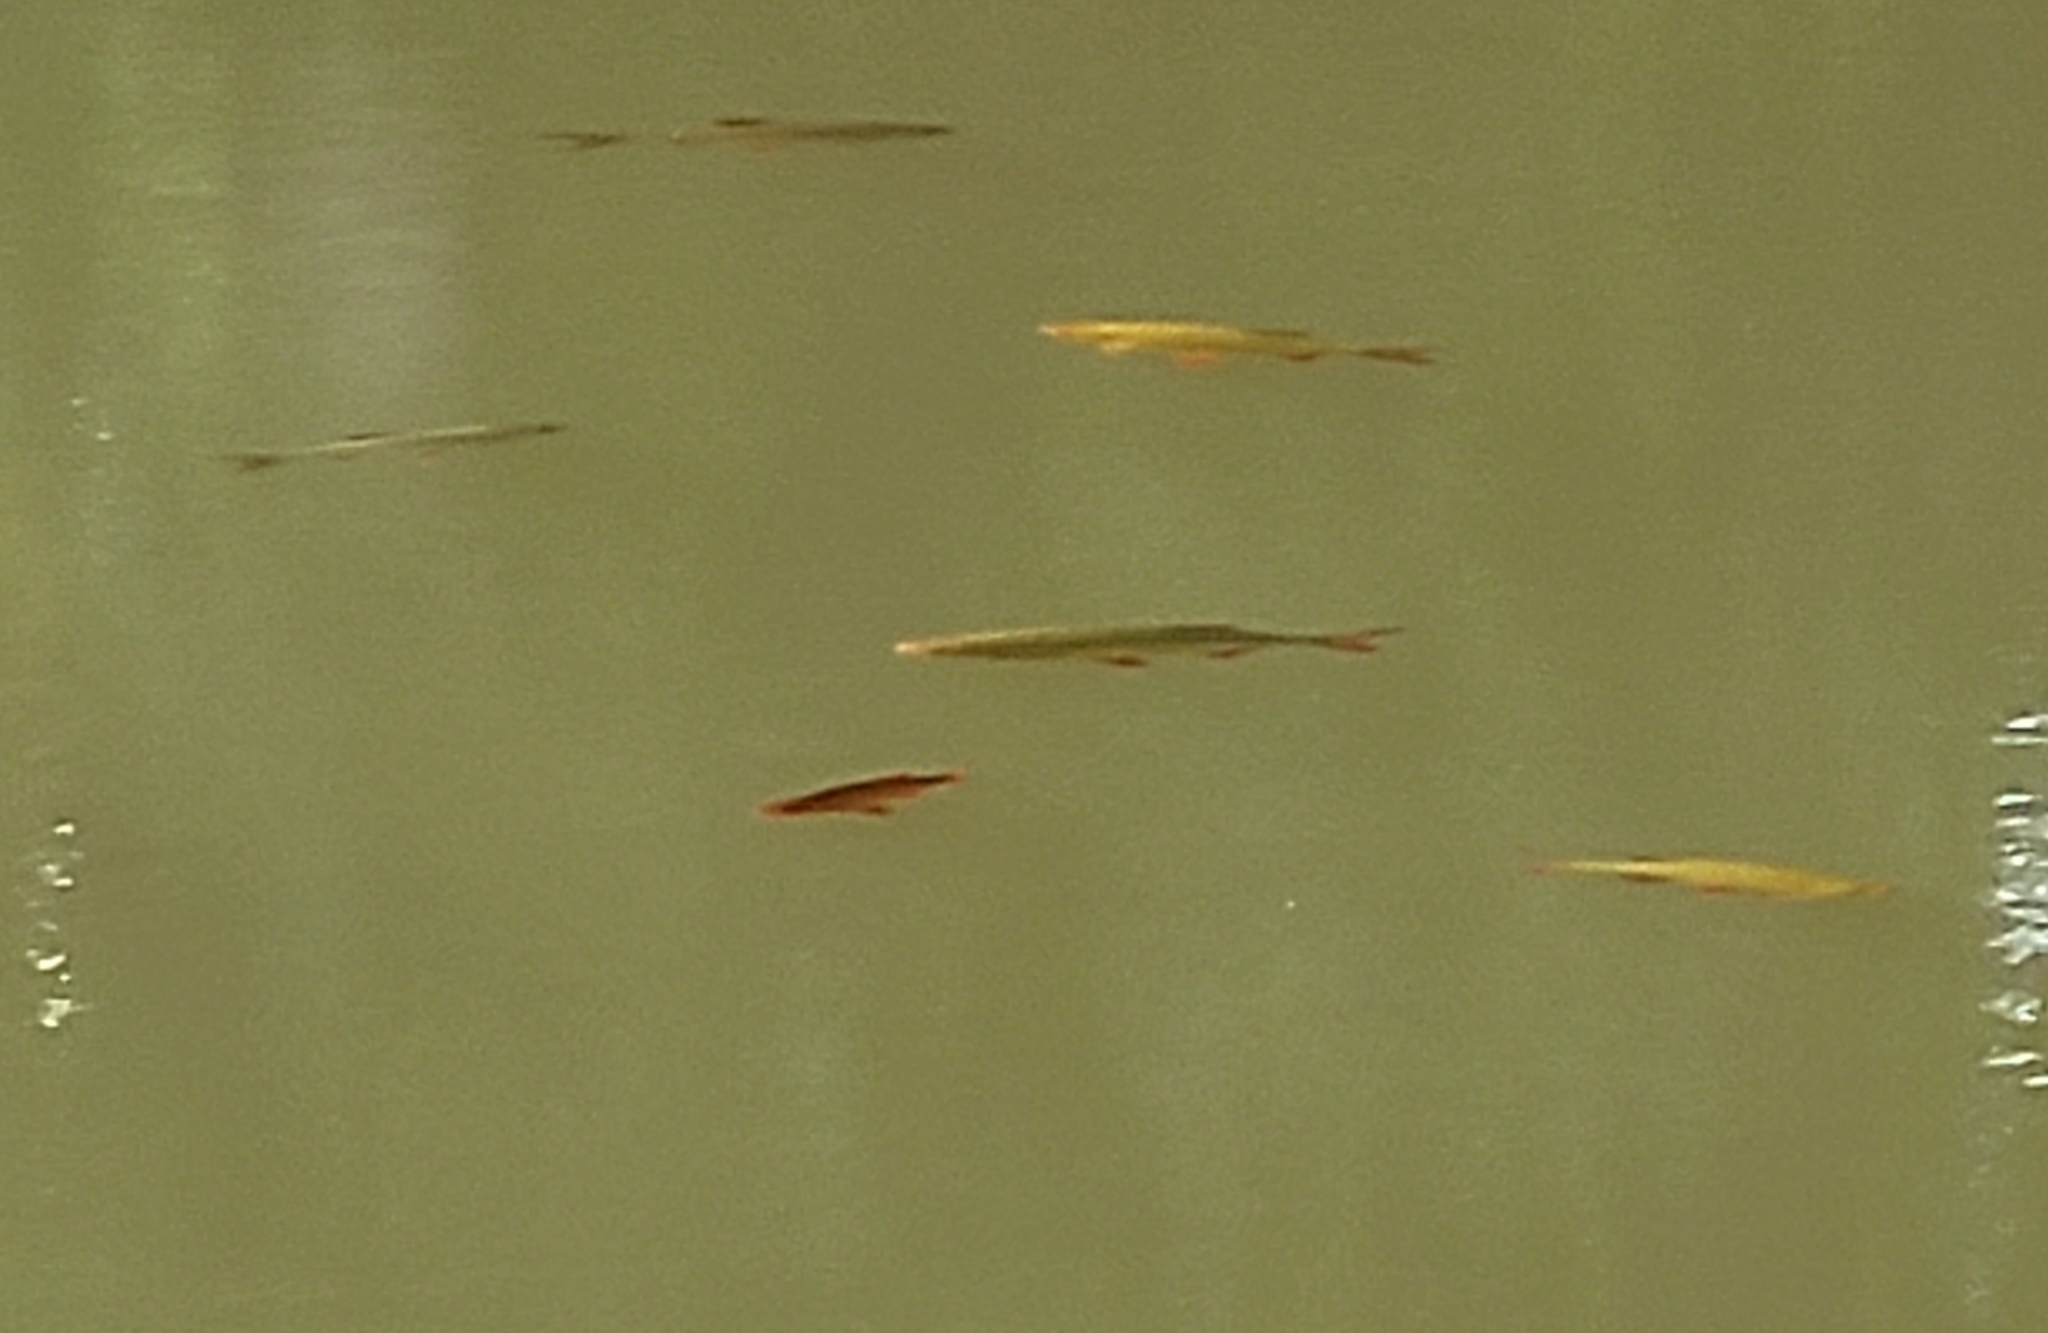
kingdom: Animalia
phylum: Chordata
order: Cypriniformes
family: Cyprinidae
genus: Scardinius
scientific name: Scardinius erythrophthalmus
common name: Rudd
